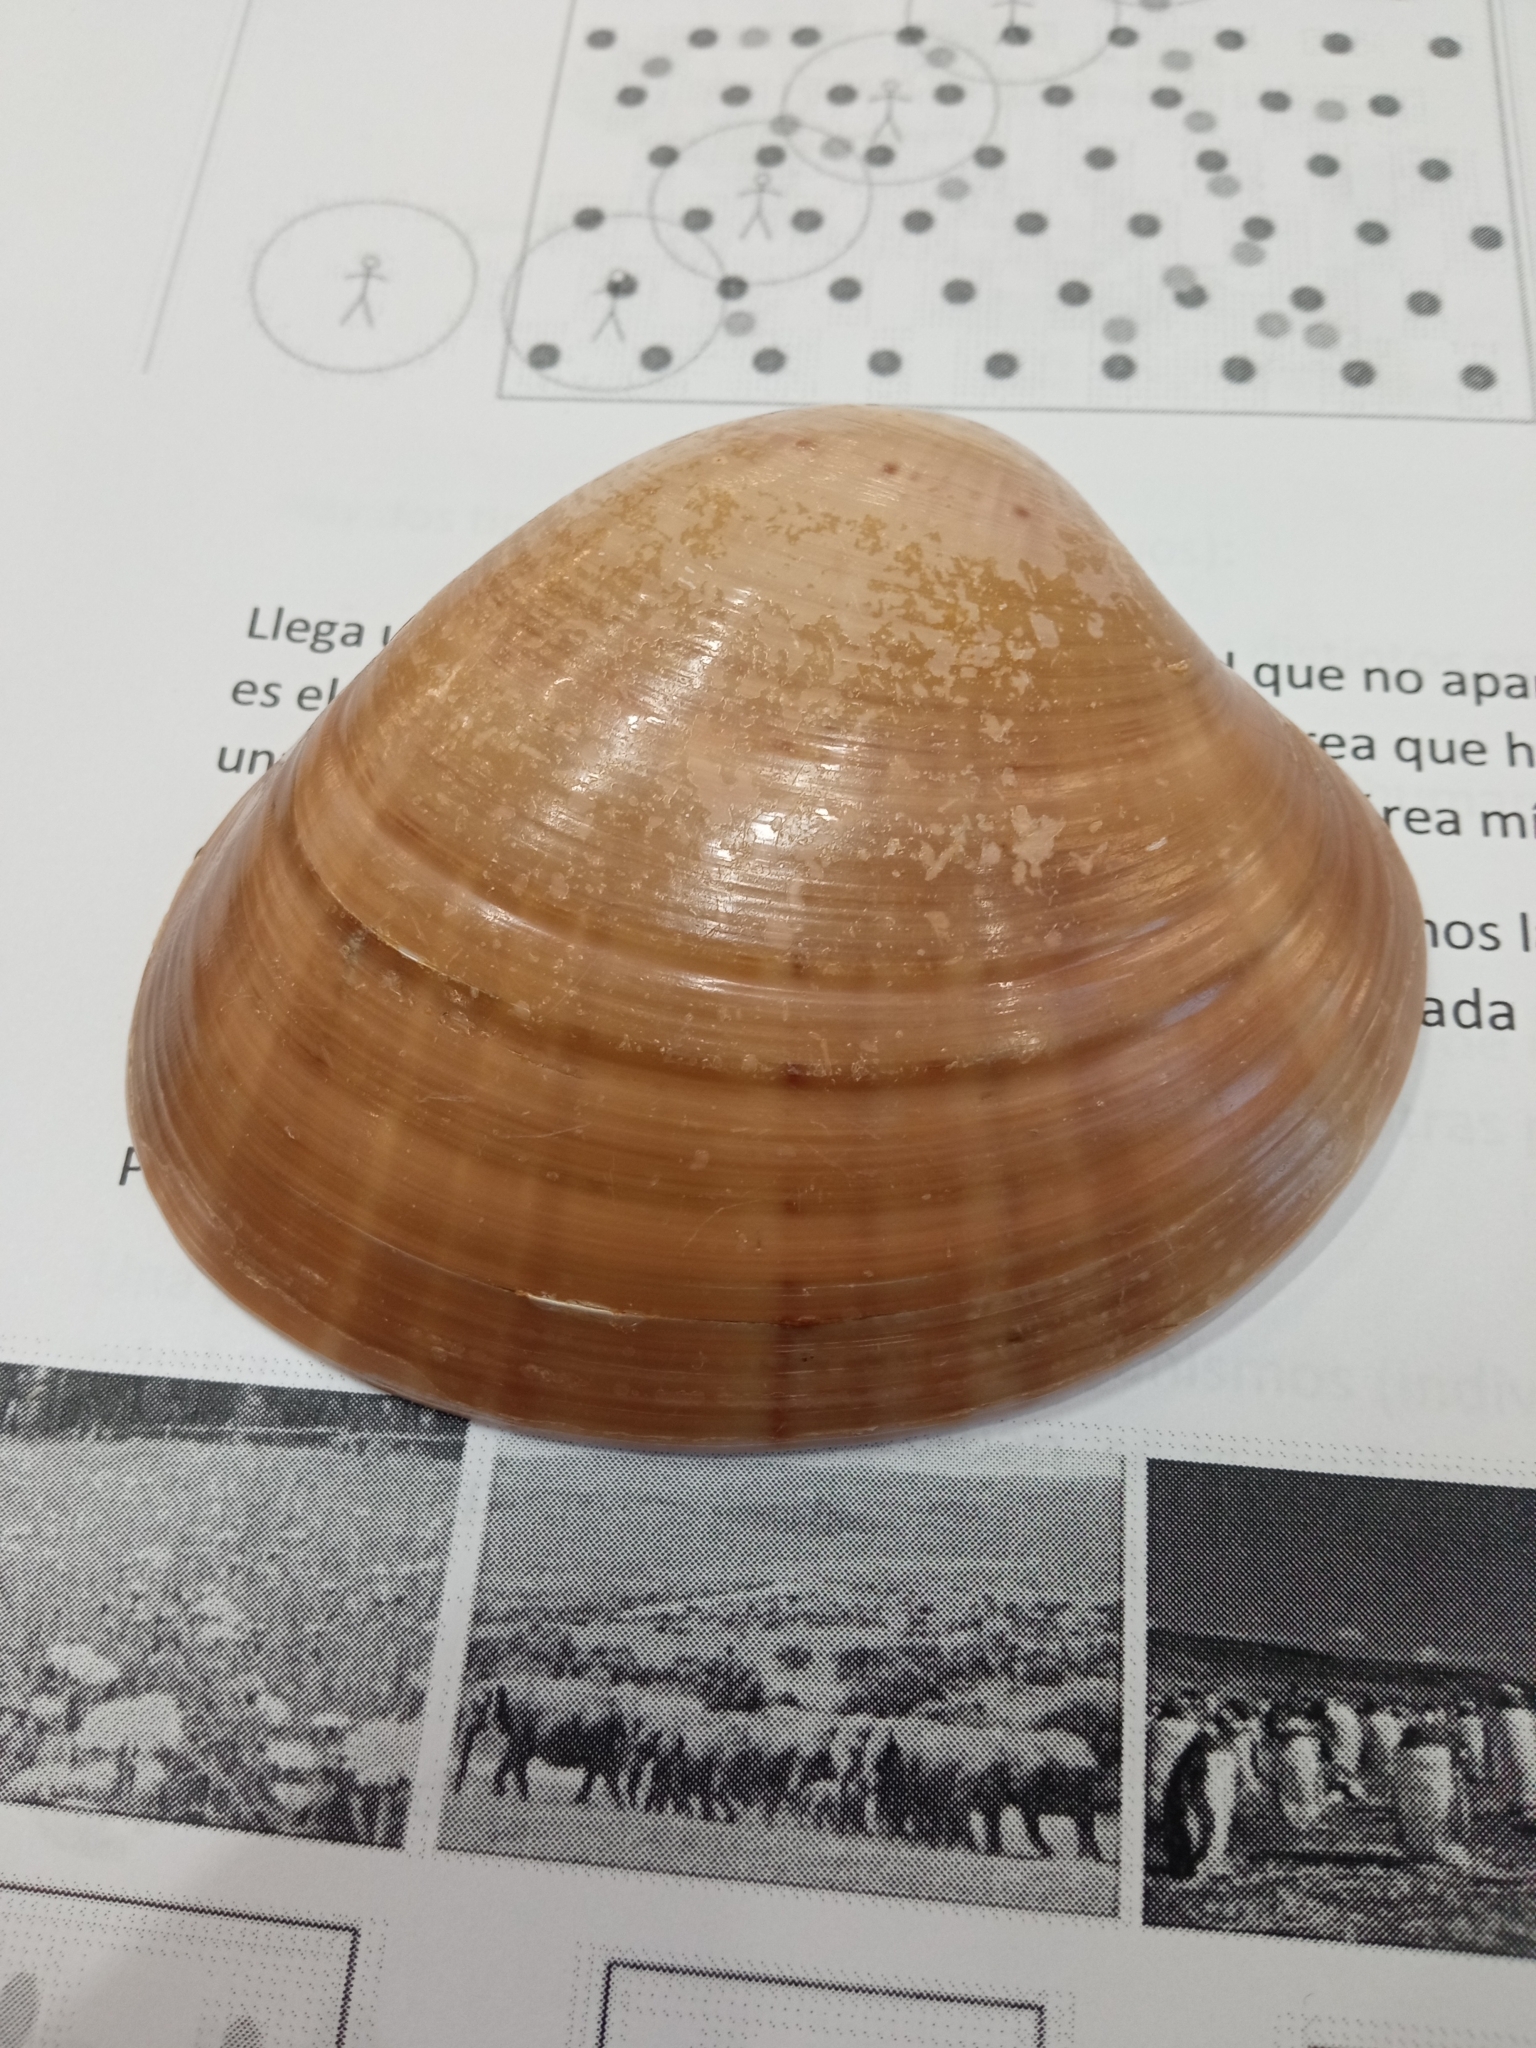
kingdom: Animalia
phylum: Mollusca
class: Bivalvia
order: Venerida
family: Veneridae
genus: Callista
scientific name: Callista chione
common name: Brown venus
